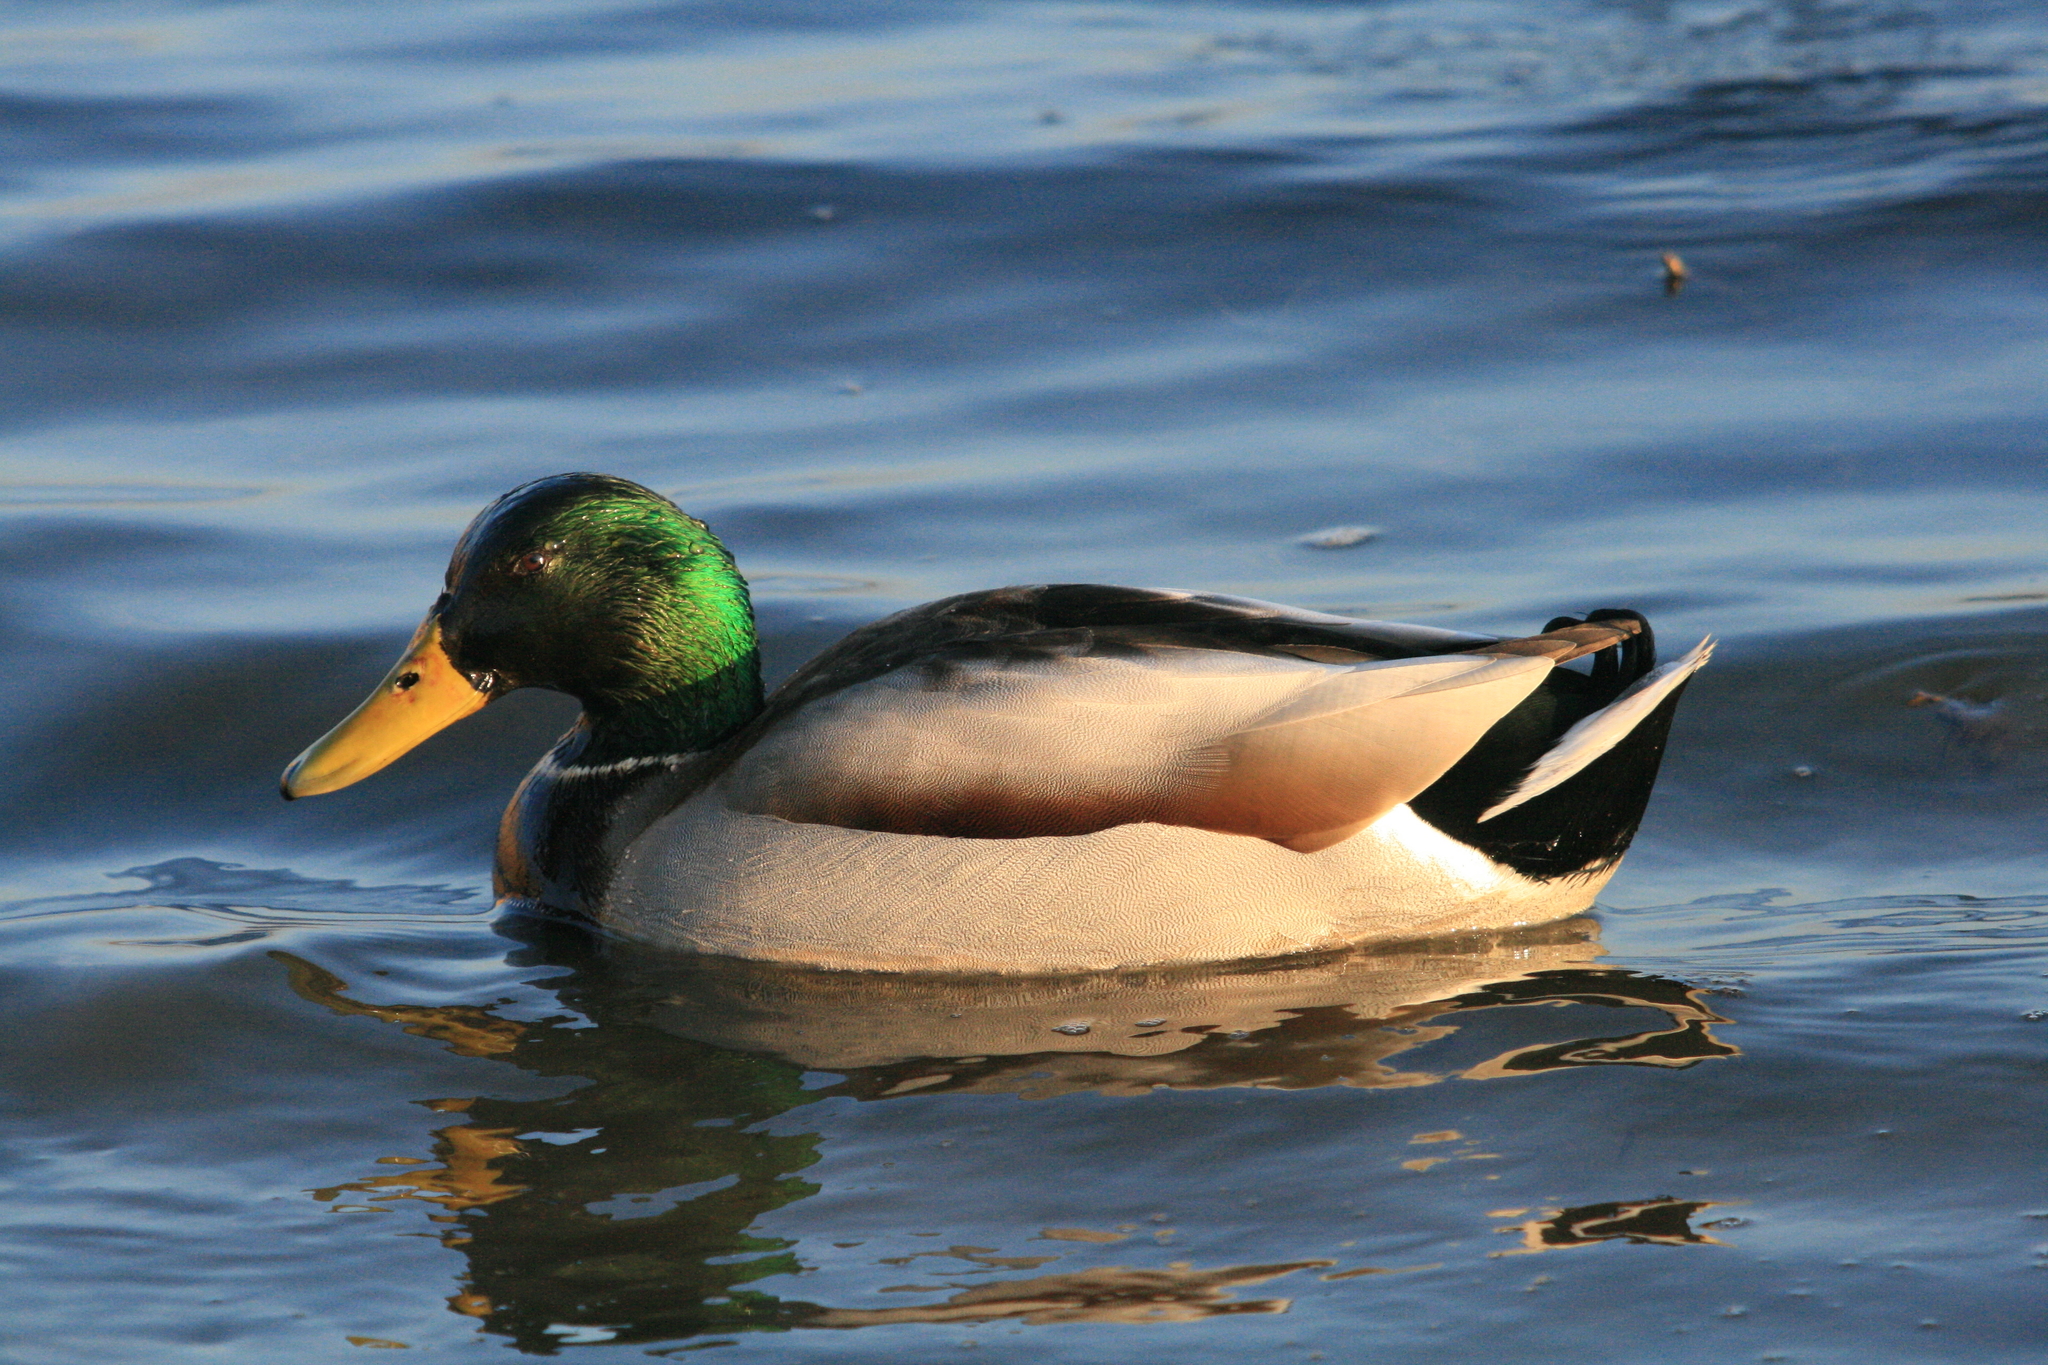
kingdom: Animalia
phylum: Chordata
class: Aves
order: Anseriformes
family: Anatidae
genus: Anas
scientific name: Anas platyrhynchos
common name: Mallard
